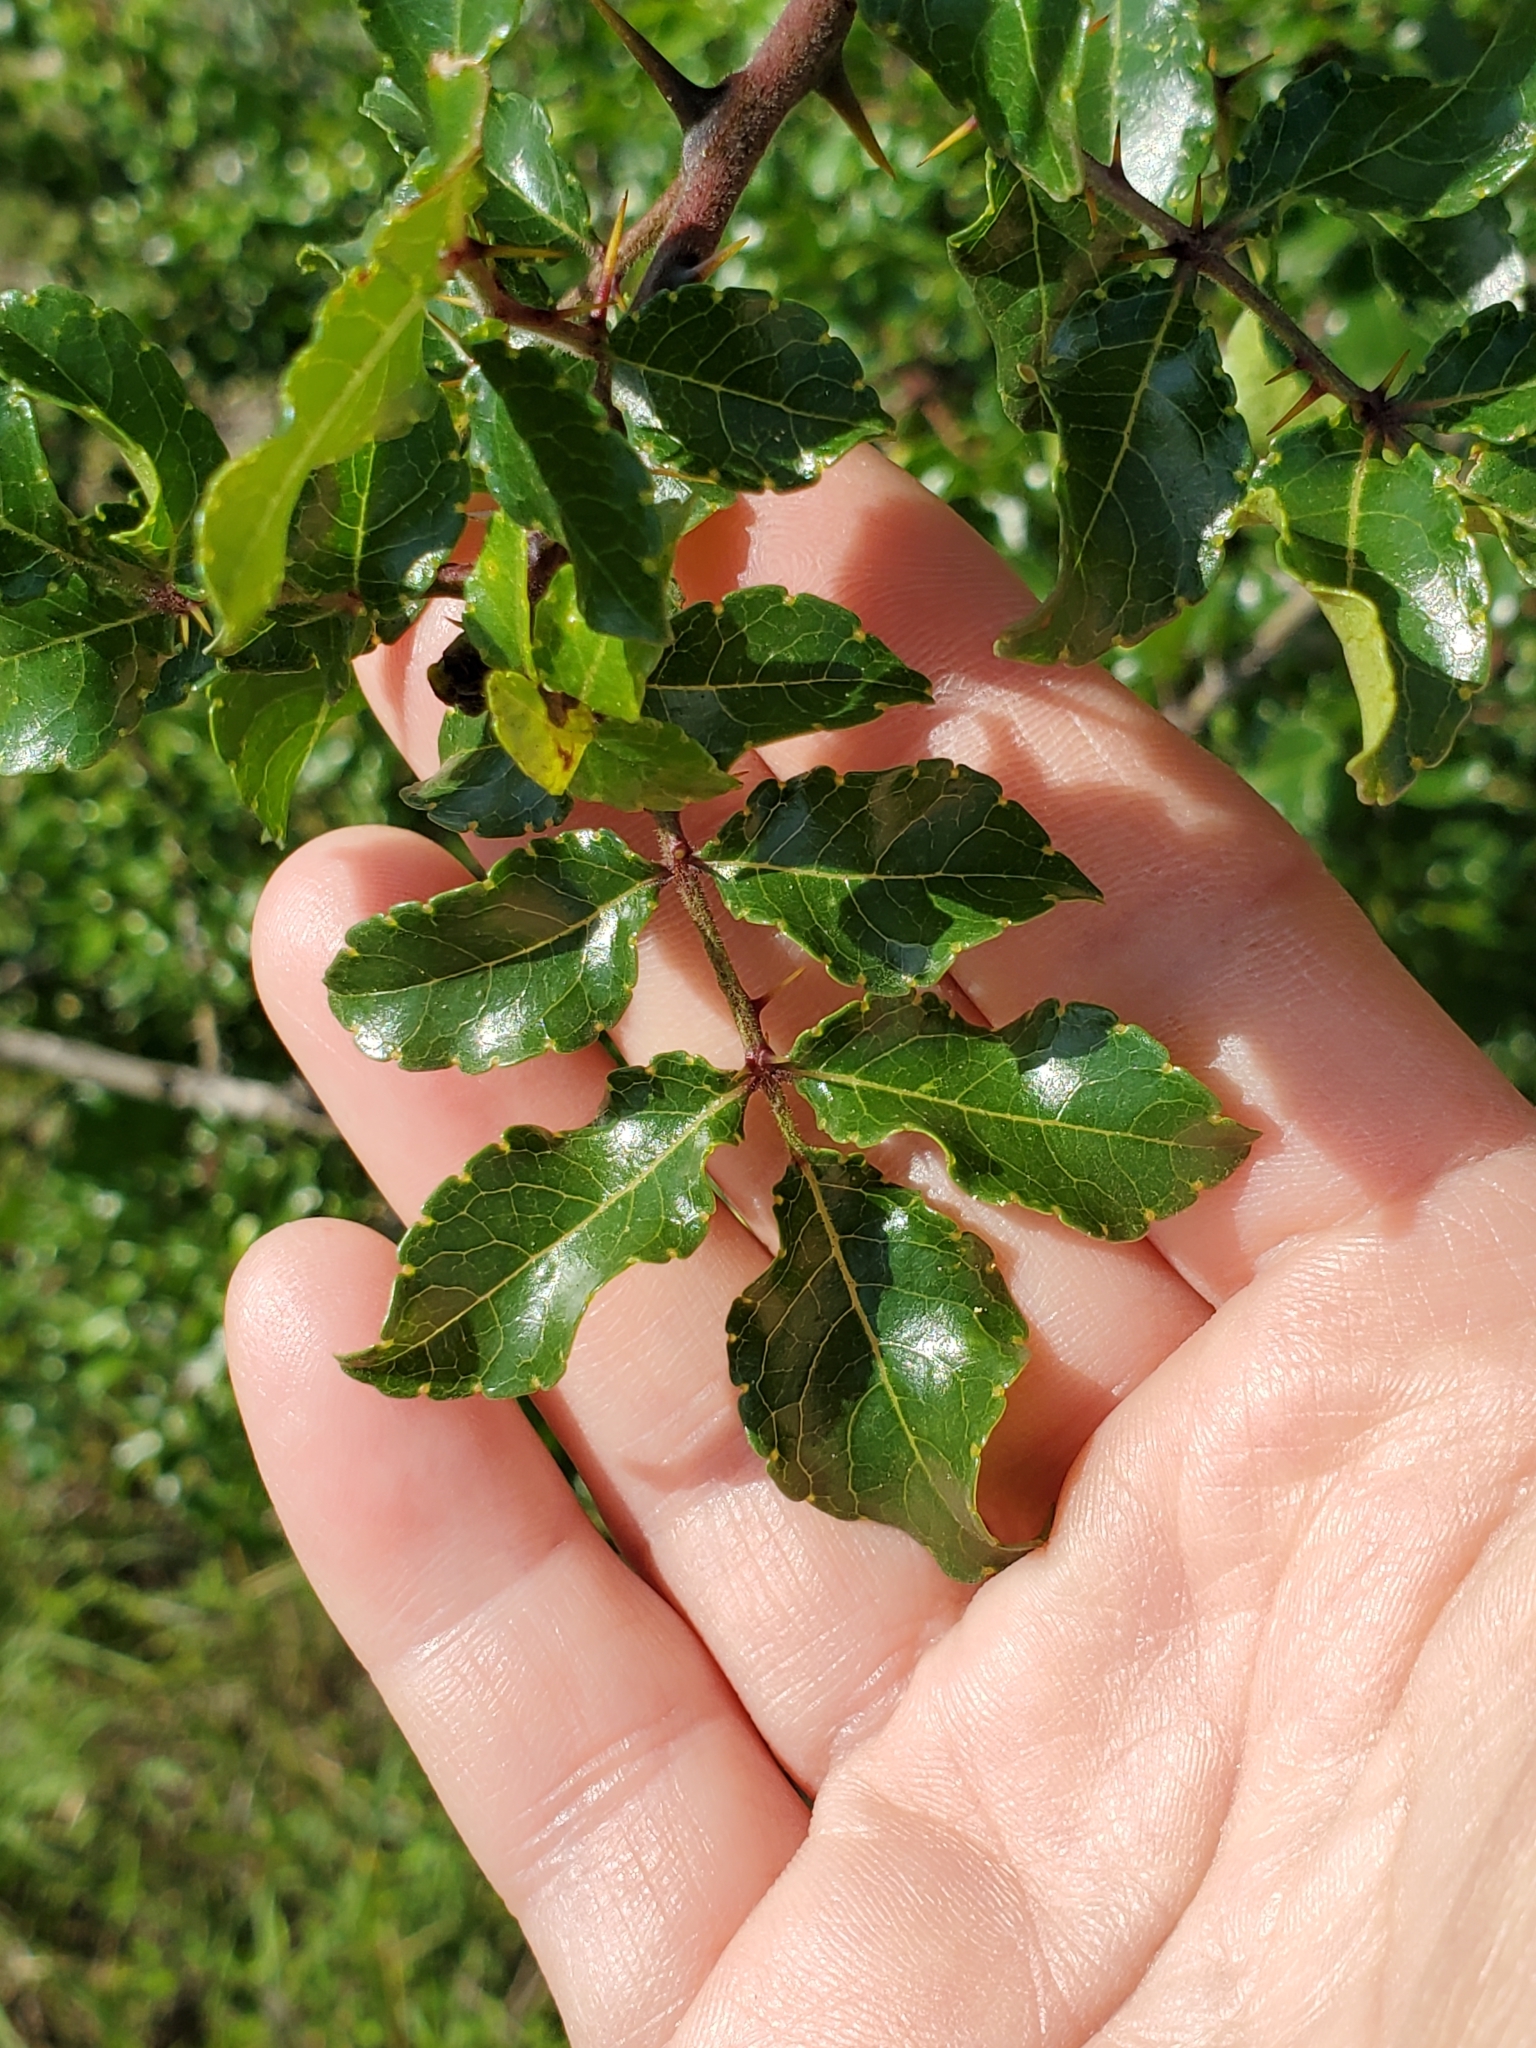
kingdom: Plantae
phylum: Tracheophyta
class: Magnoliopsida
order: Sapindales
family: Rutaceae
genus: Zanthoxylum
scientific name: Zanthoxylum clava-herculis
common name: Hercules'-club
